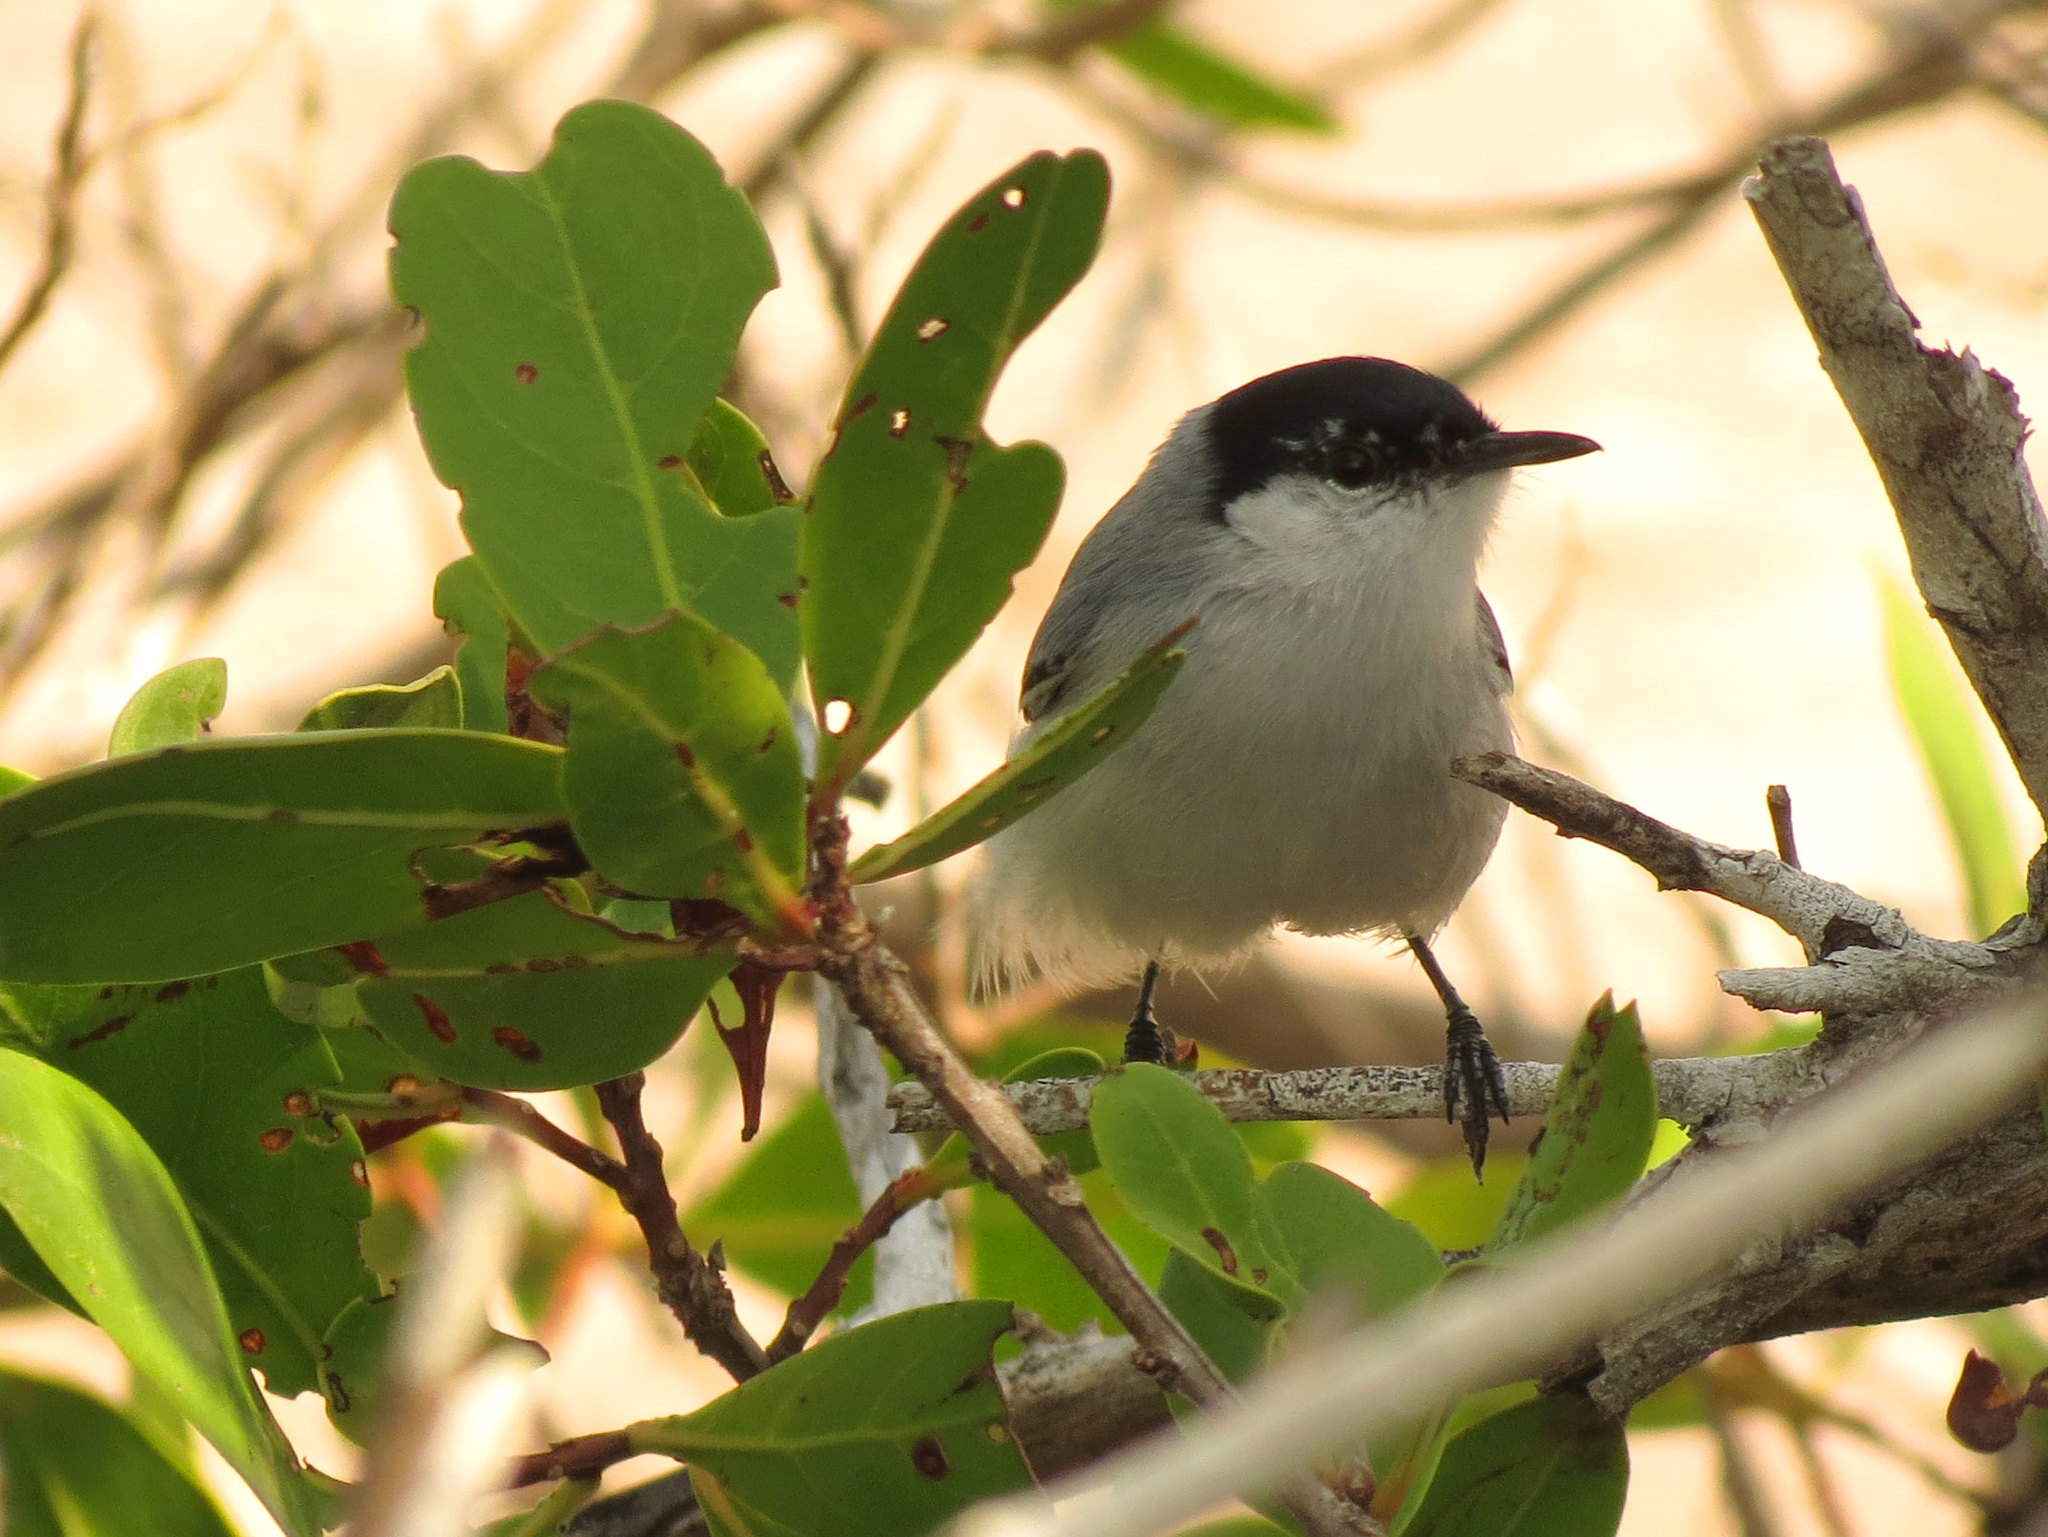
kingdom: Animalia
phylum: Chordata
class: Aves
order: Passeriformes
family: Polioptilidae
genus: Polioptila
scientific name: Polioptila albiventris
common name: Yucatan gnatcatcher
